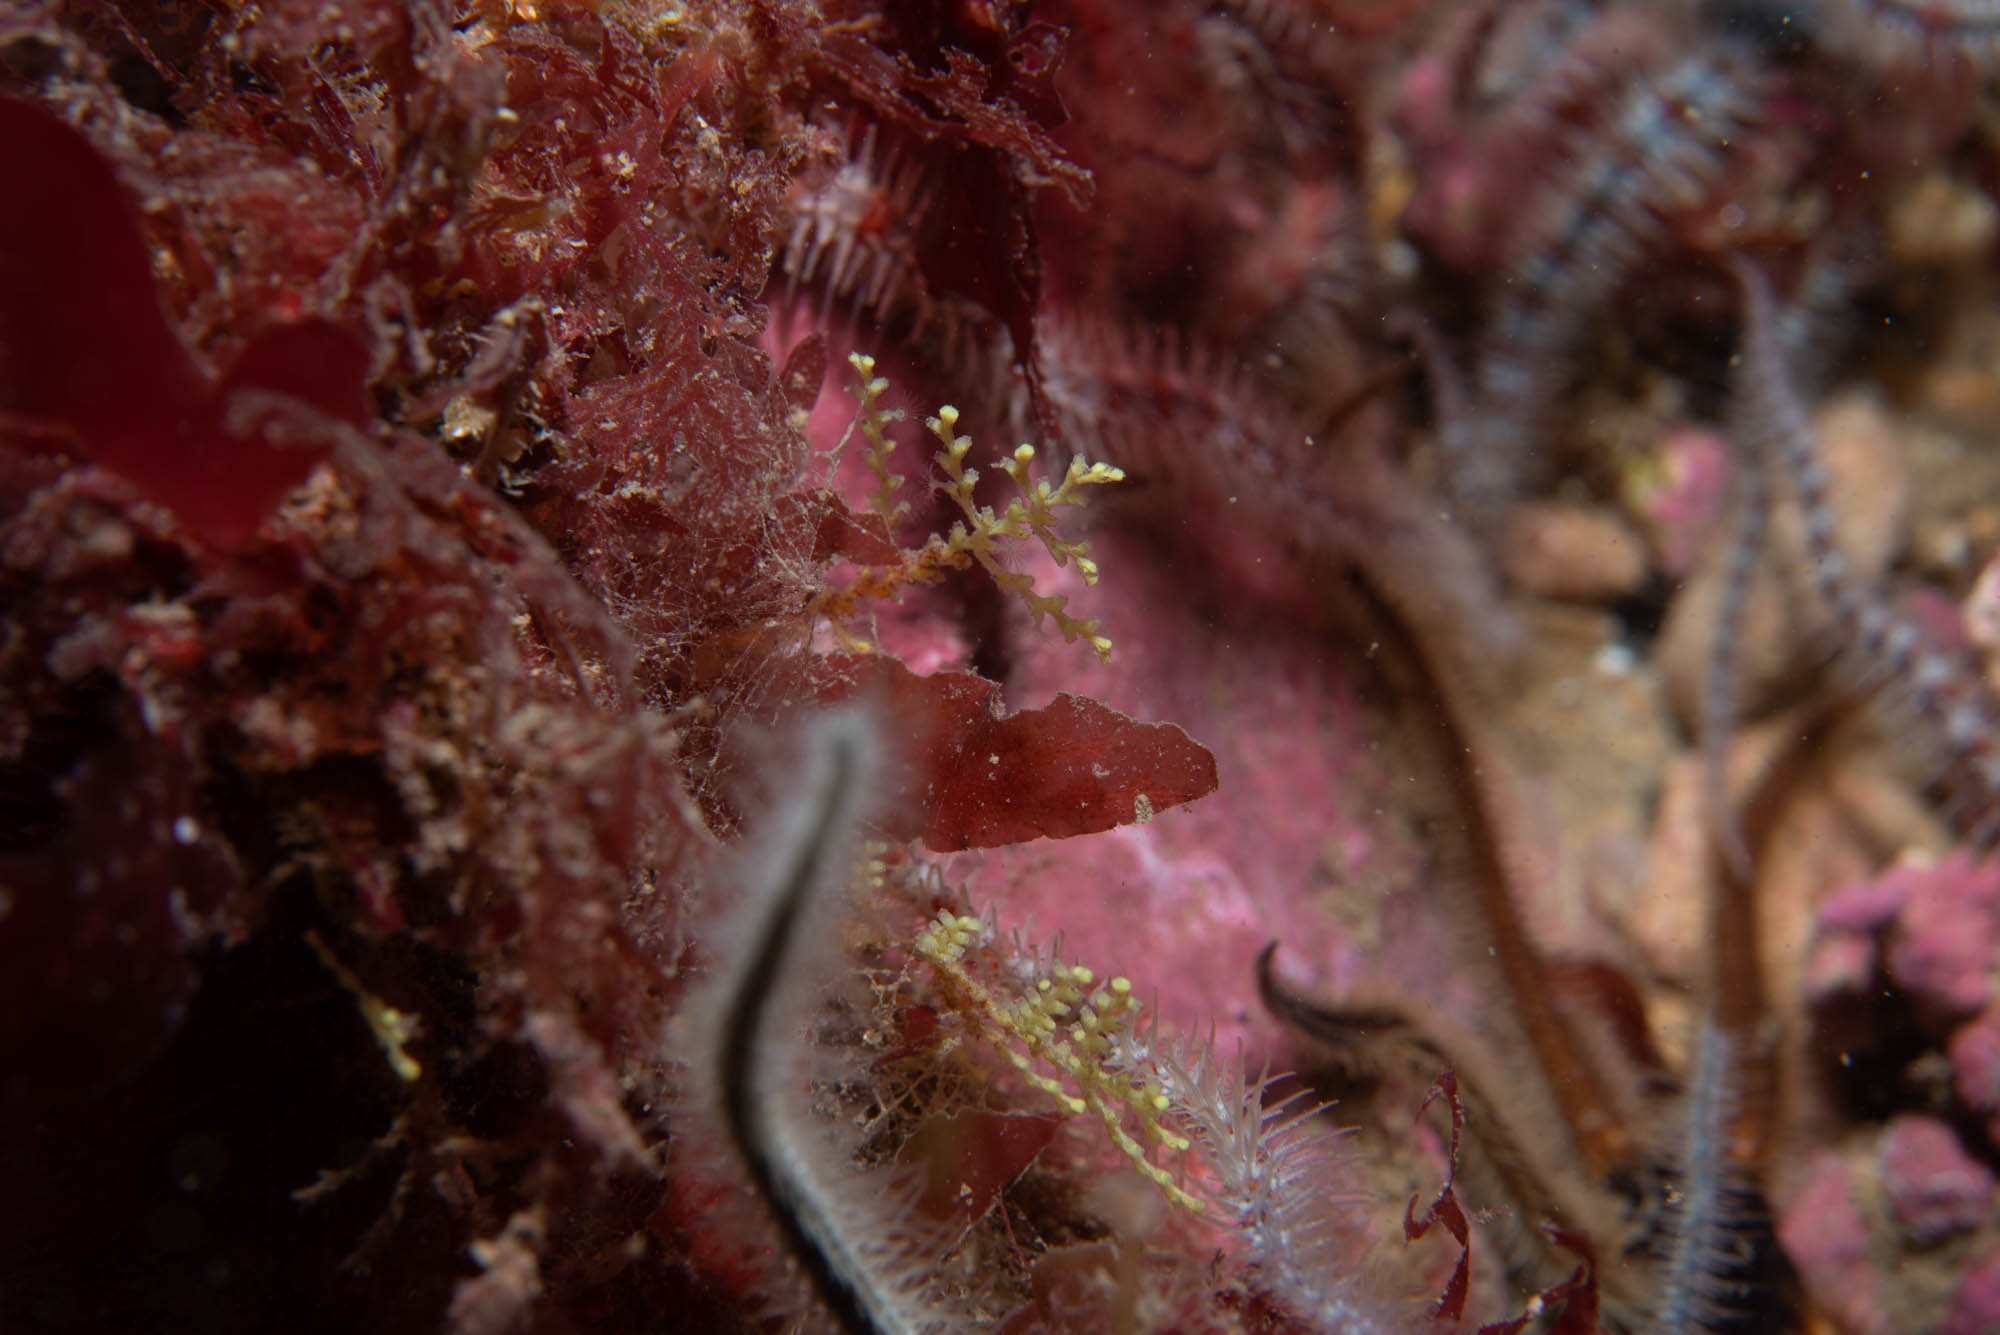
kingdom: Animalia
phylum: Cnidaria
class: Hydrozoa
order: Leptothecata
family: Sertularellidae
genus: Sertularella
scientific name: Sertularella gayi
